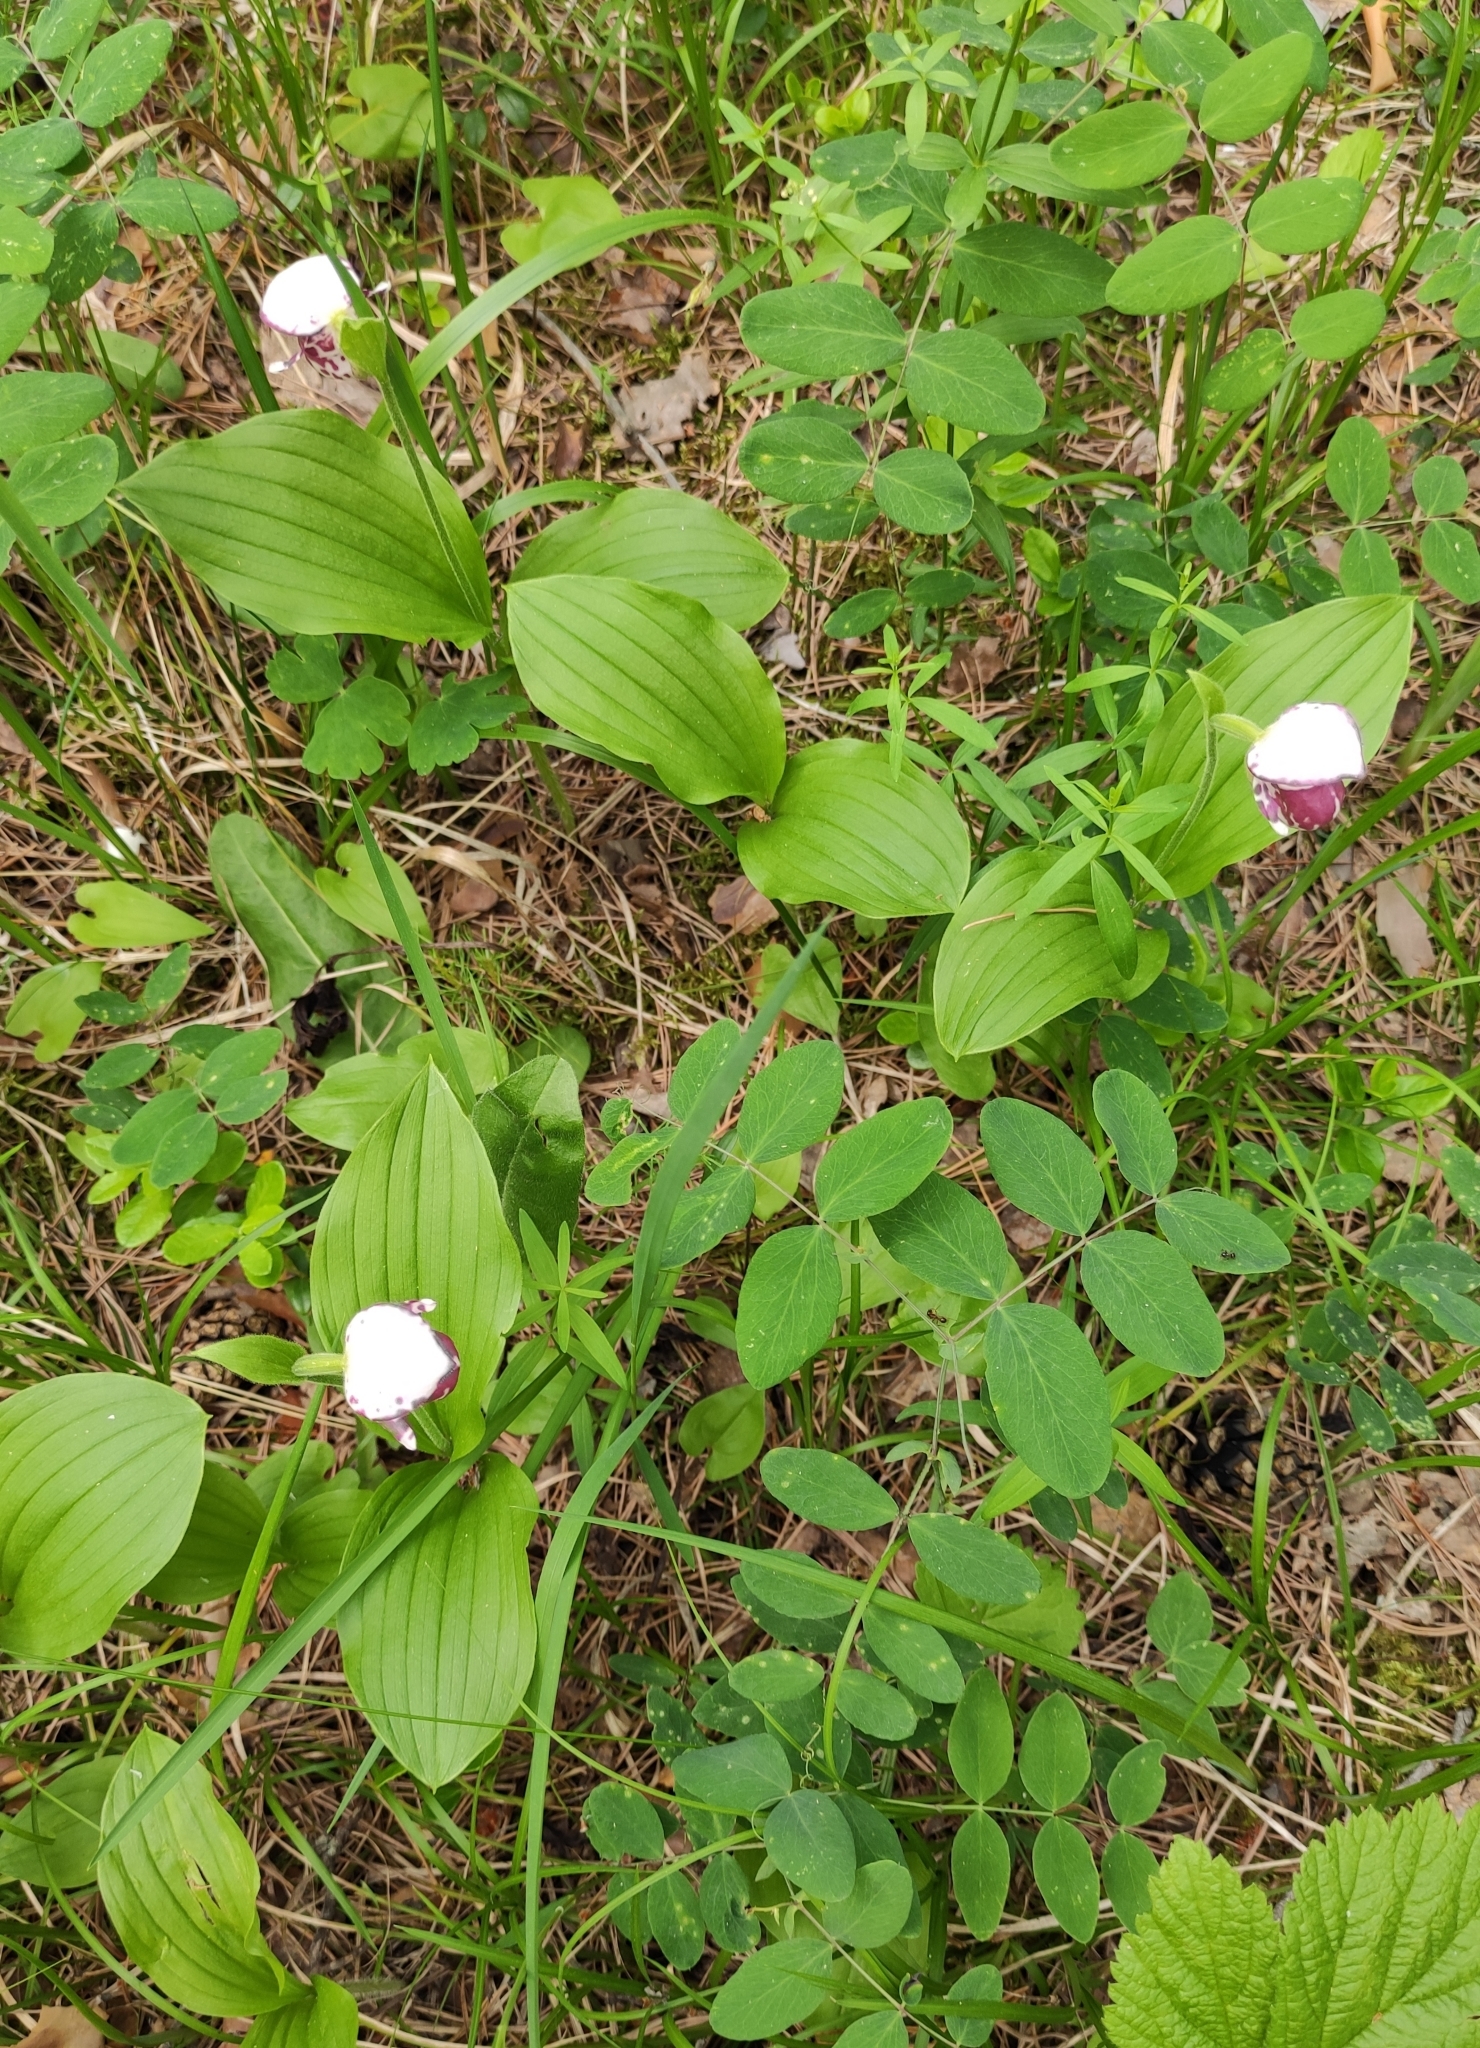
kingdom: Plantae
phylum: Tracheophyta
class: Liliopsida
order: Asparagales
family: Orchidaceae
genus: Cypripedium
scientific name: Cypripedium guttatum
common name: Pink lady slipper
